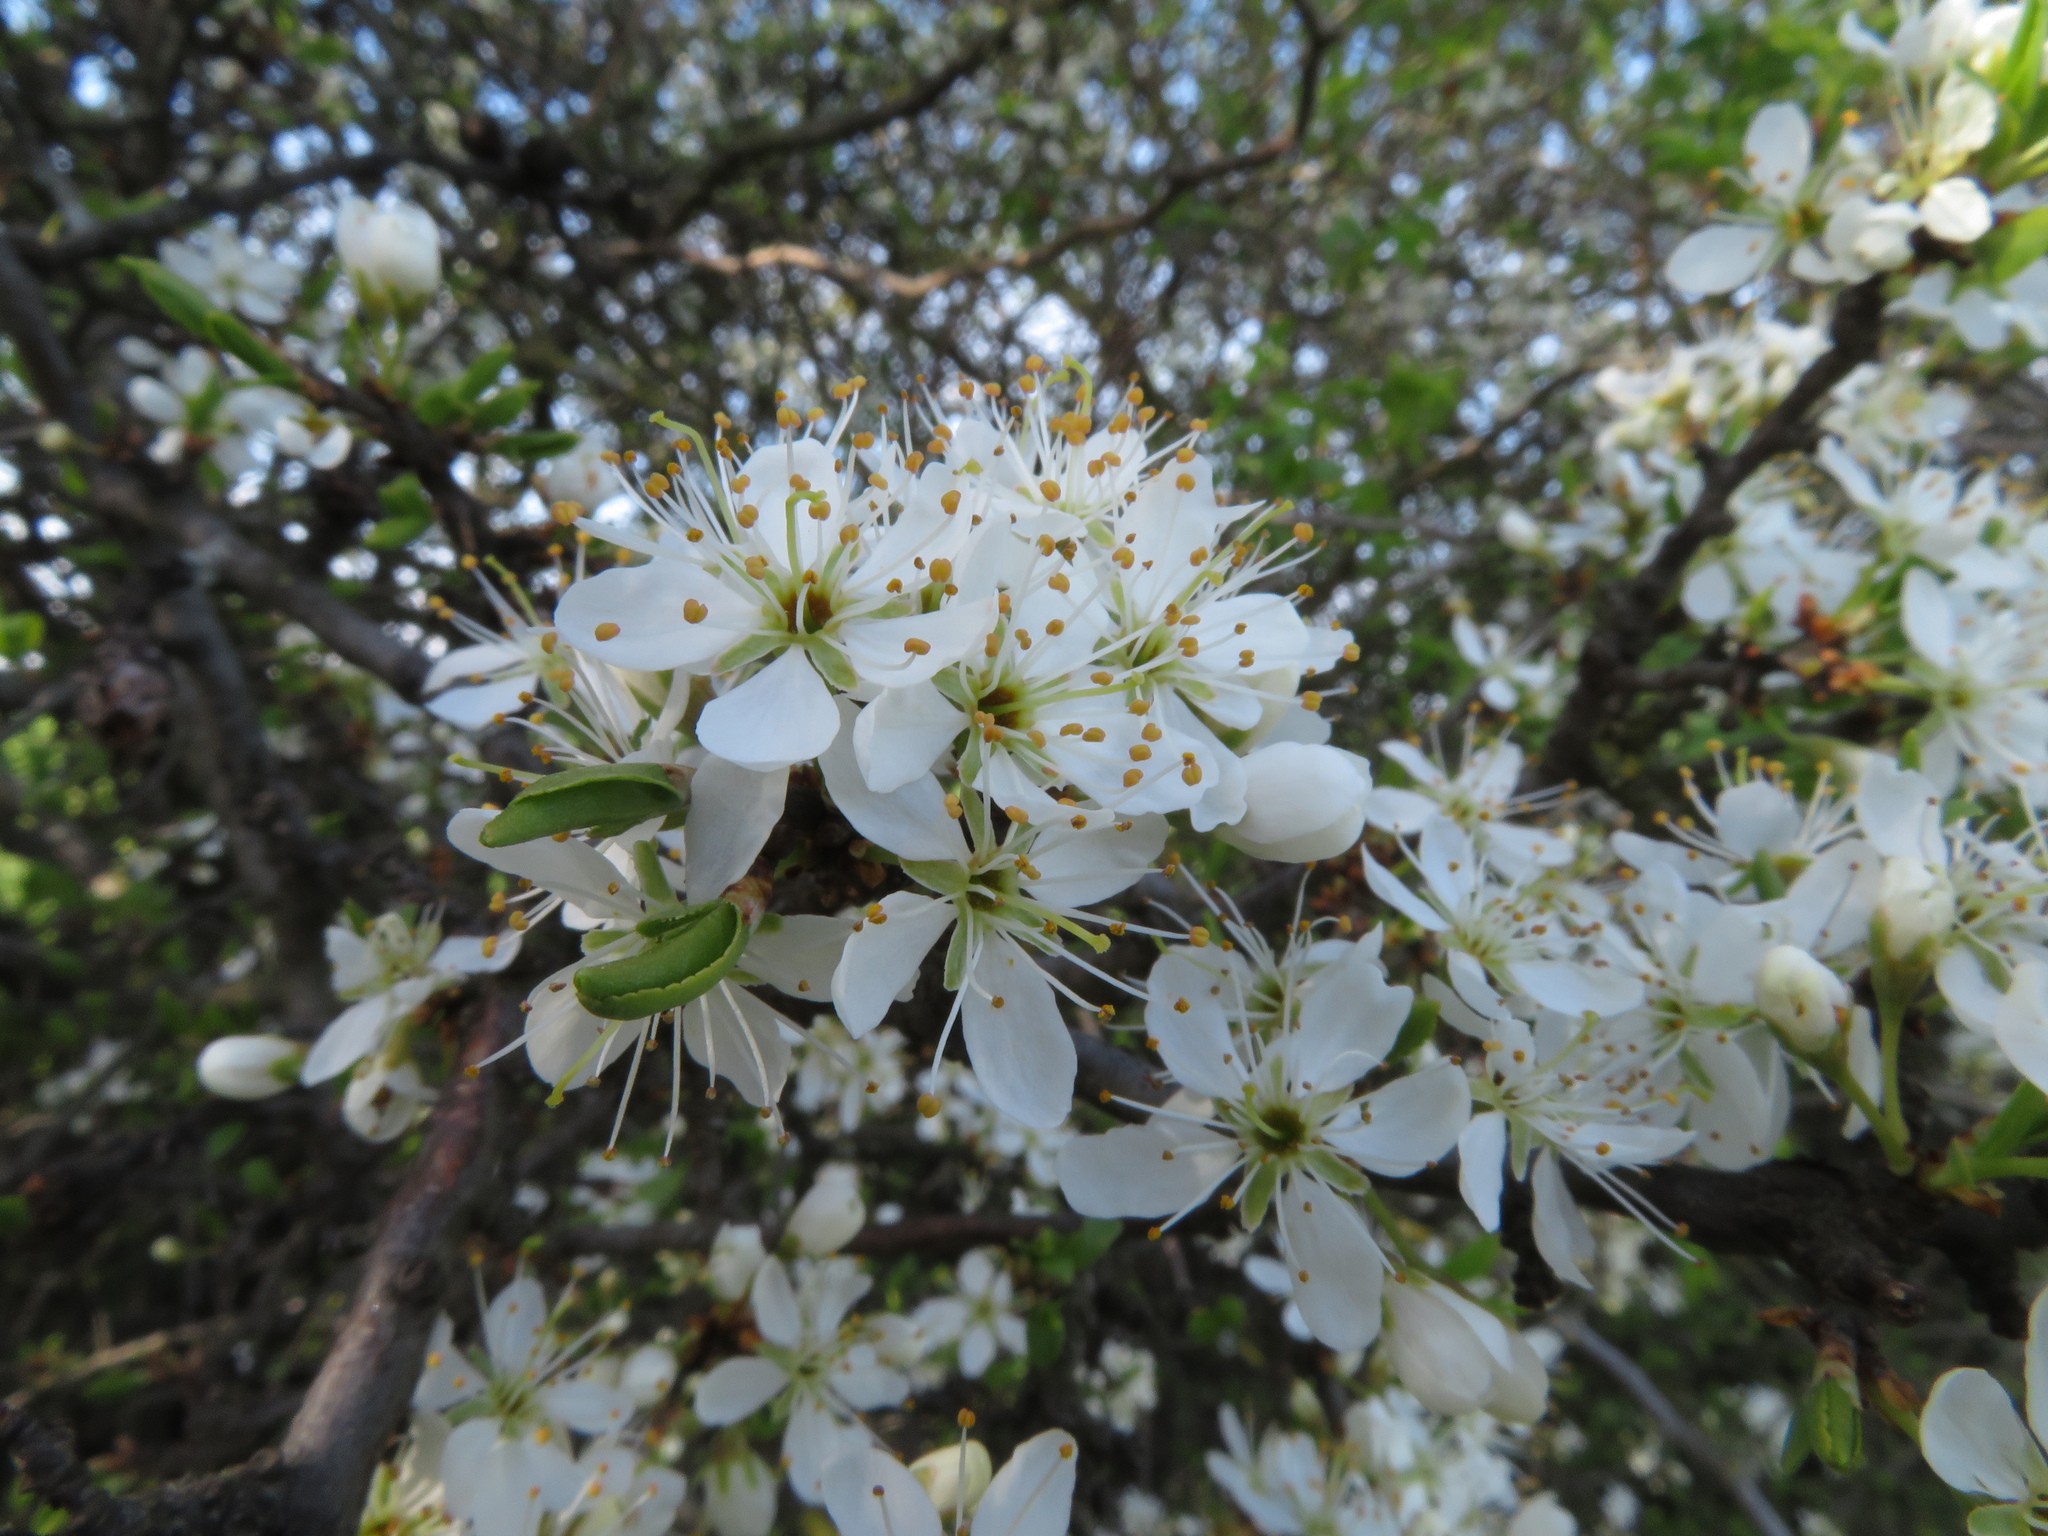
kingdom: Plantae
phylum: Tracheophyta
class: Magnoliopsida
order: Rosales
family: Rosaceae
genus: Prunus
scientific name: Prunus spinosa
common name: Blackthorn
